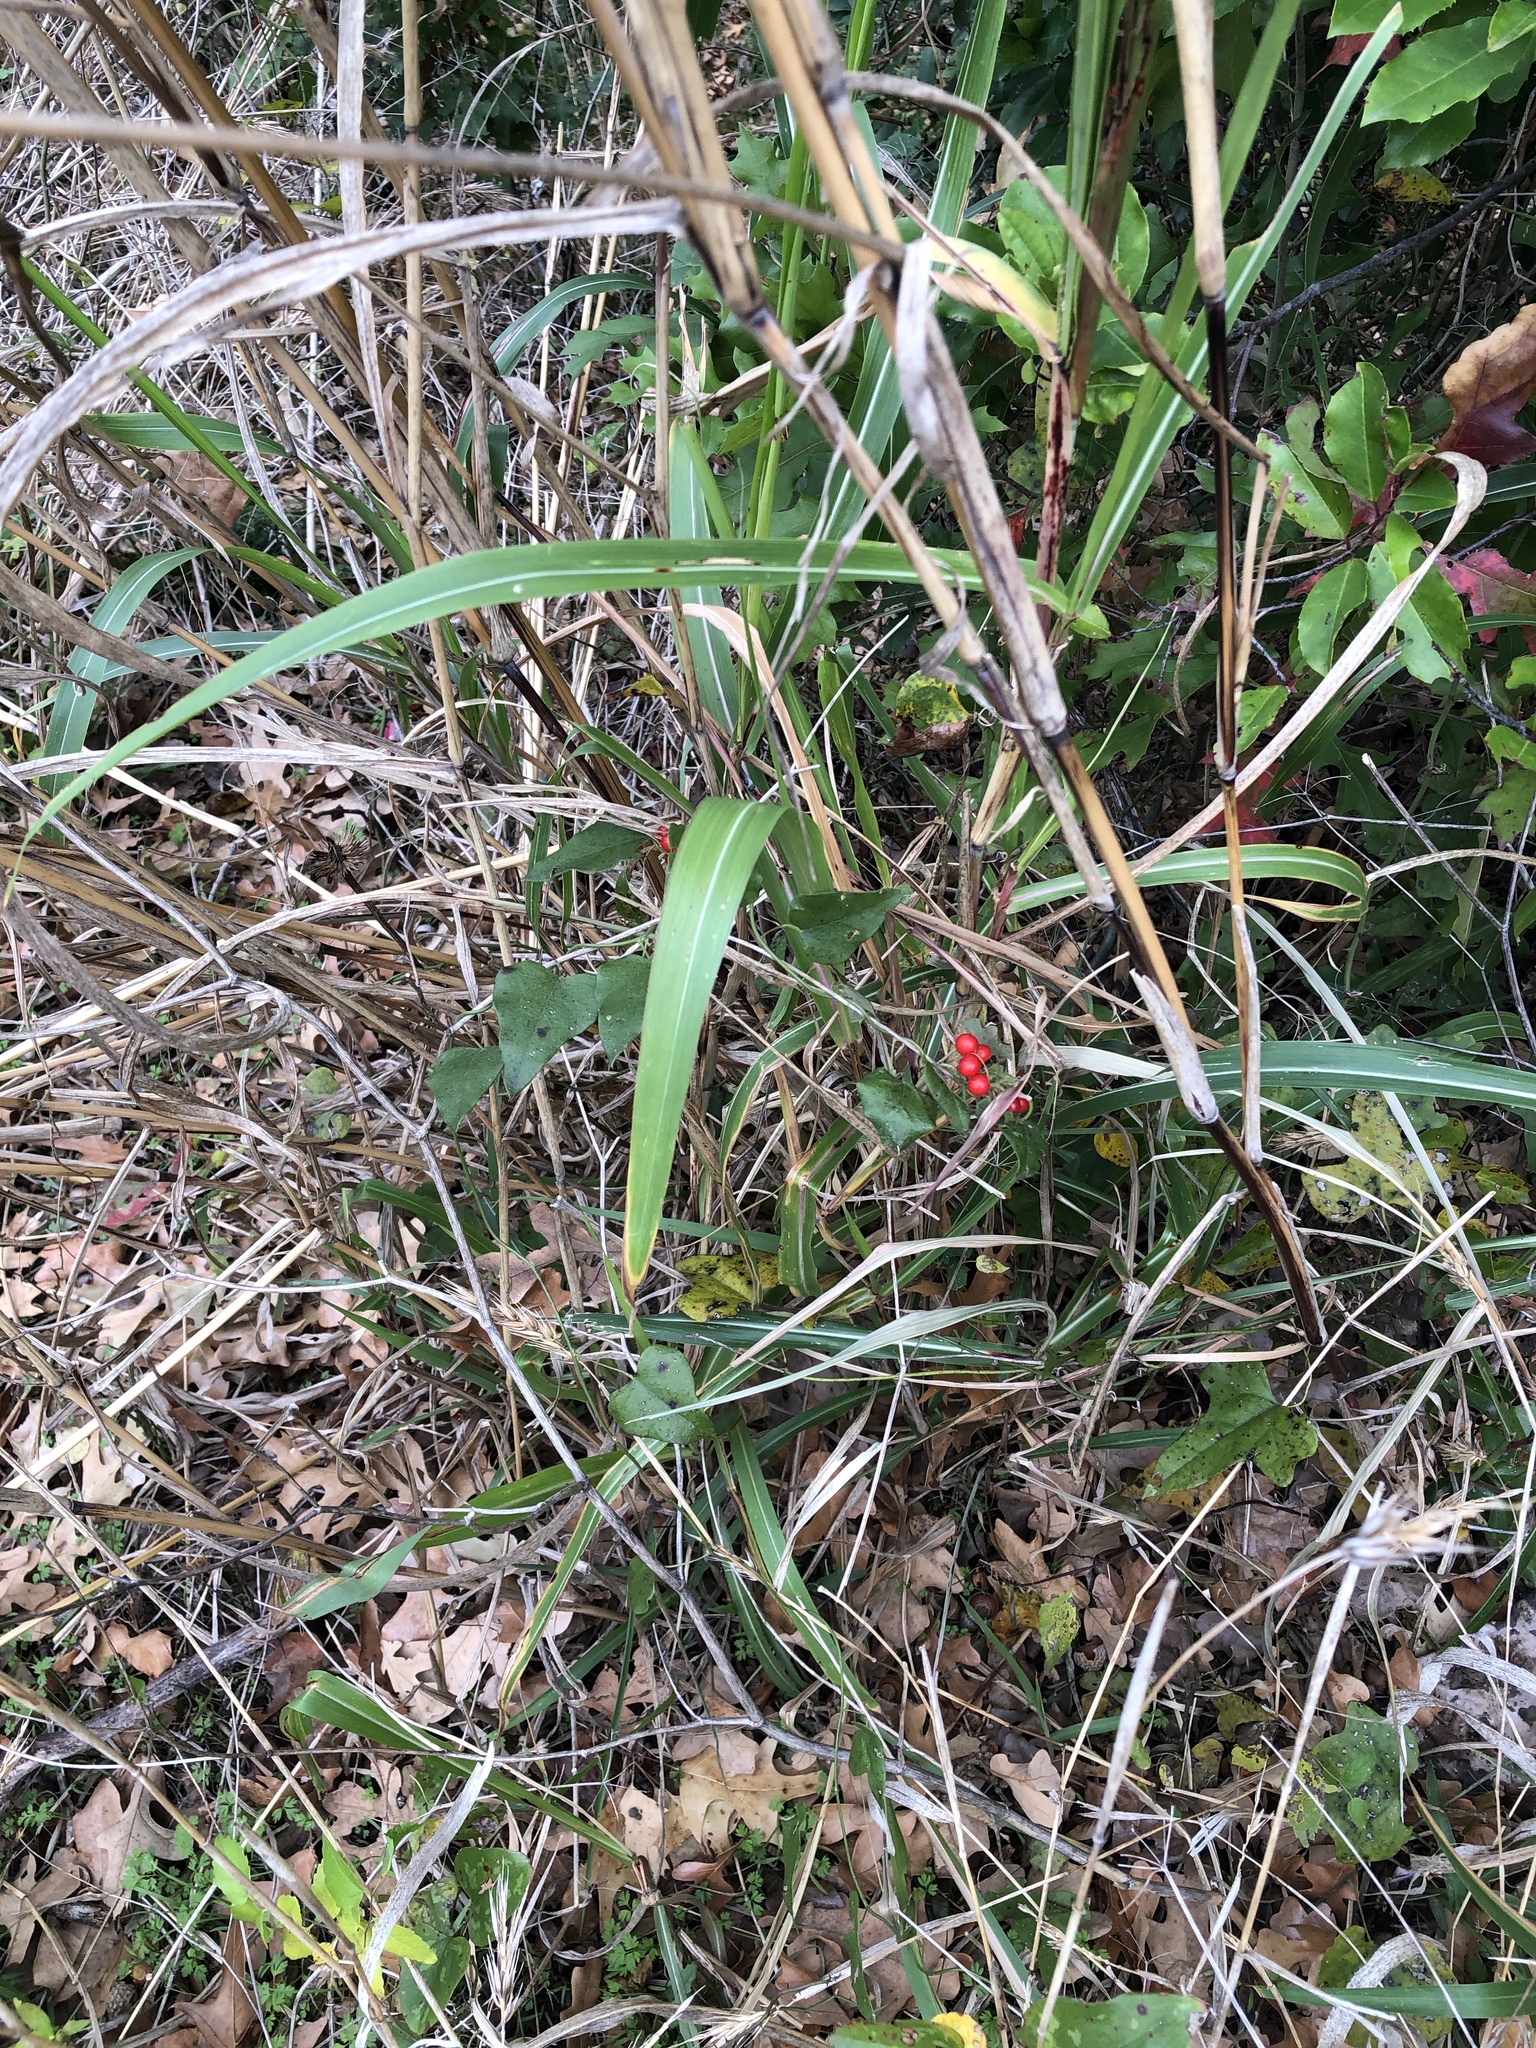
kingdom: Plantae
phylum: Tracheophyta
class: Magnoliopsida
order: Ranunculales
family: Menispermaceae
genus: Cocculus
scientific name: Cocculus carolinus
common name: Carolina moonseed
